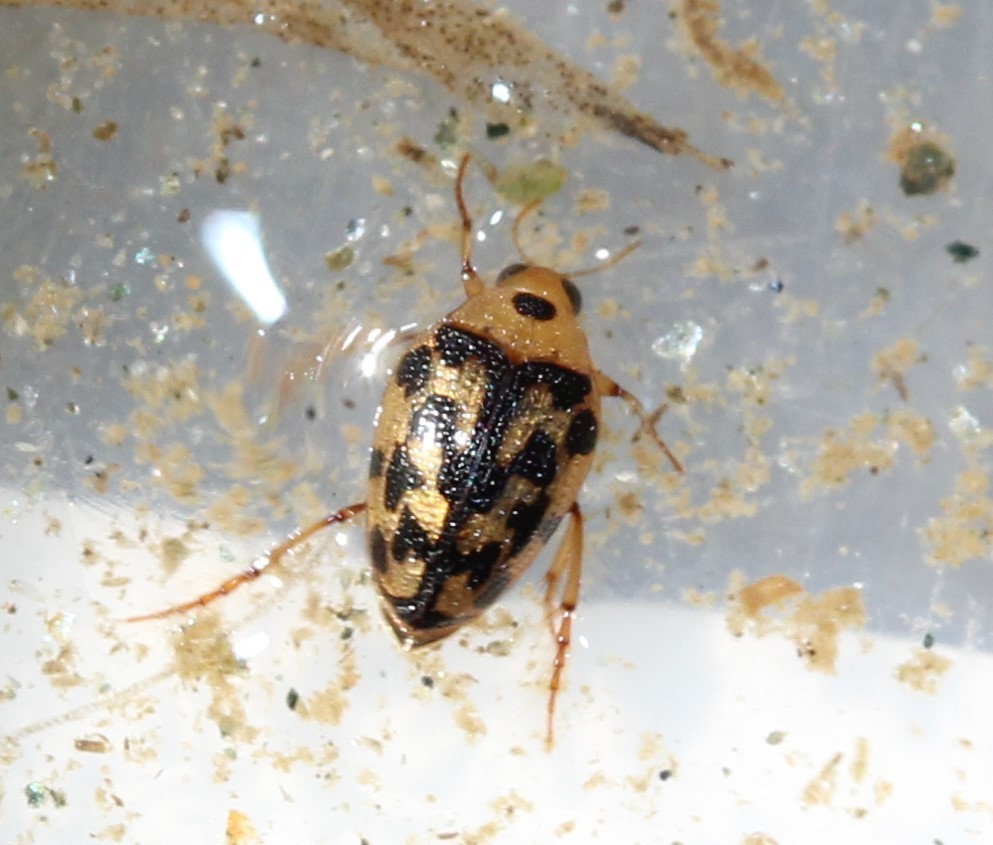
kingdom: Animalia
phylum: Arthropoda
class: Insecta
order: Coleoptera
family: Haliplidae
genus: Haliplus
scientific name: Haliplus
